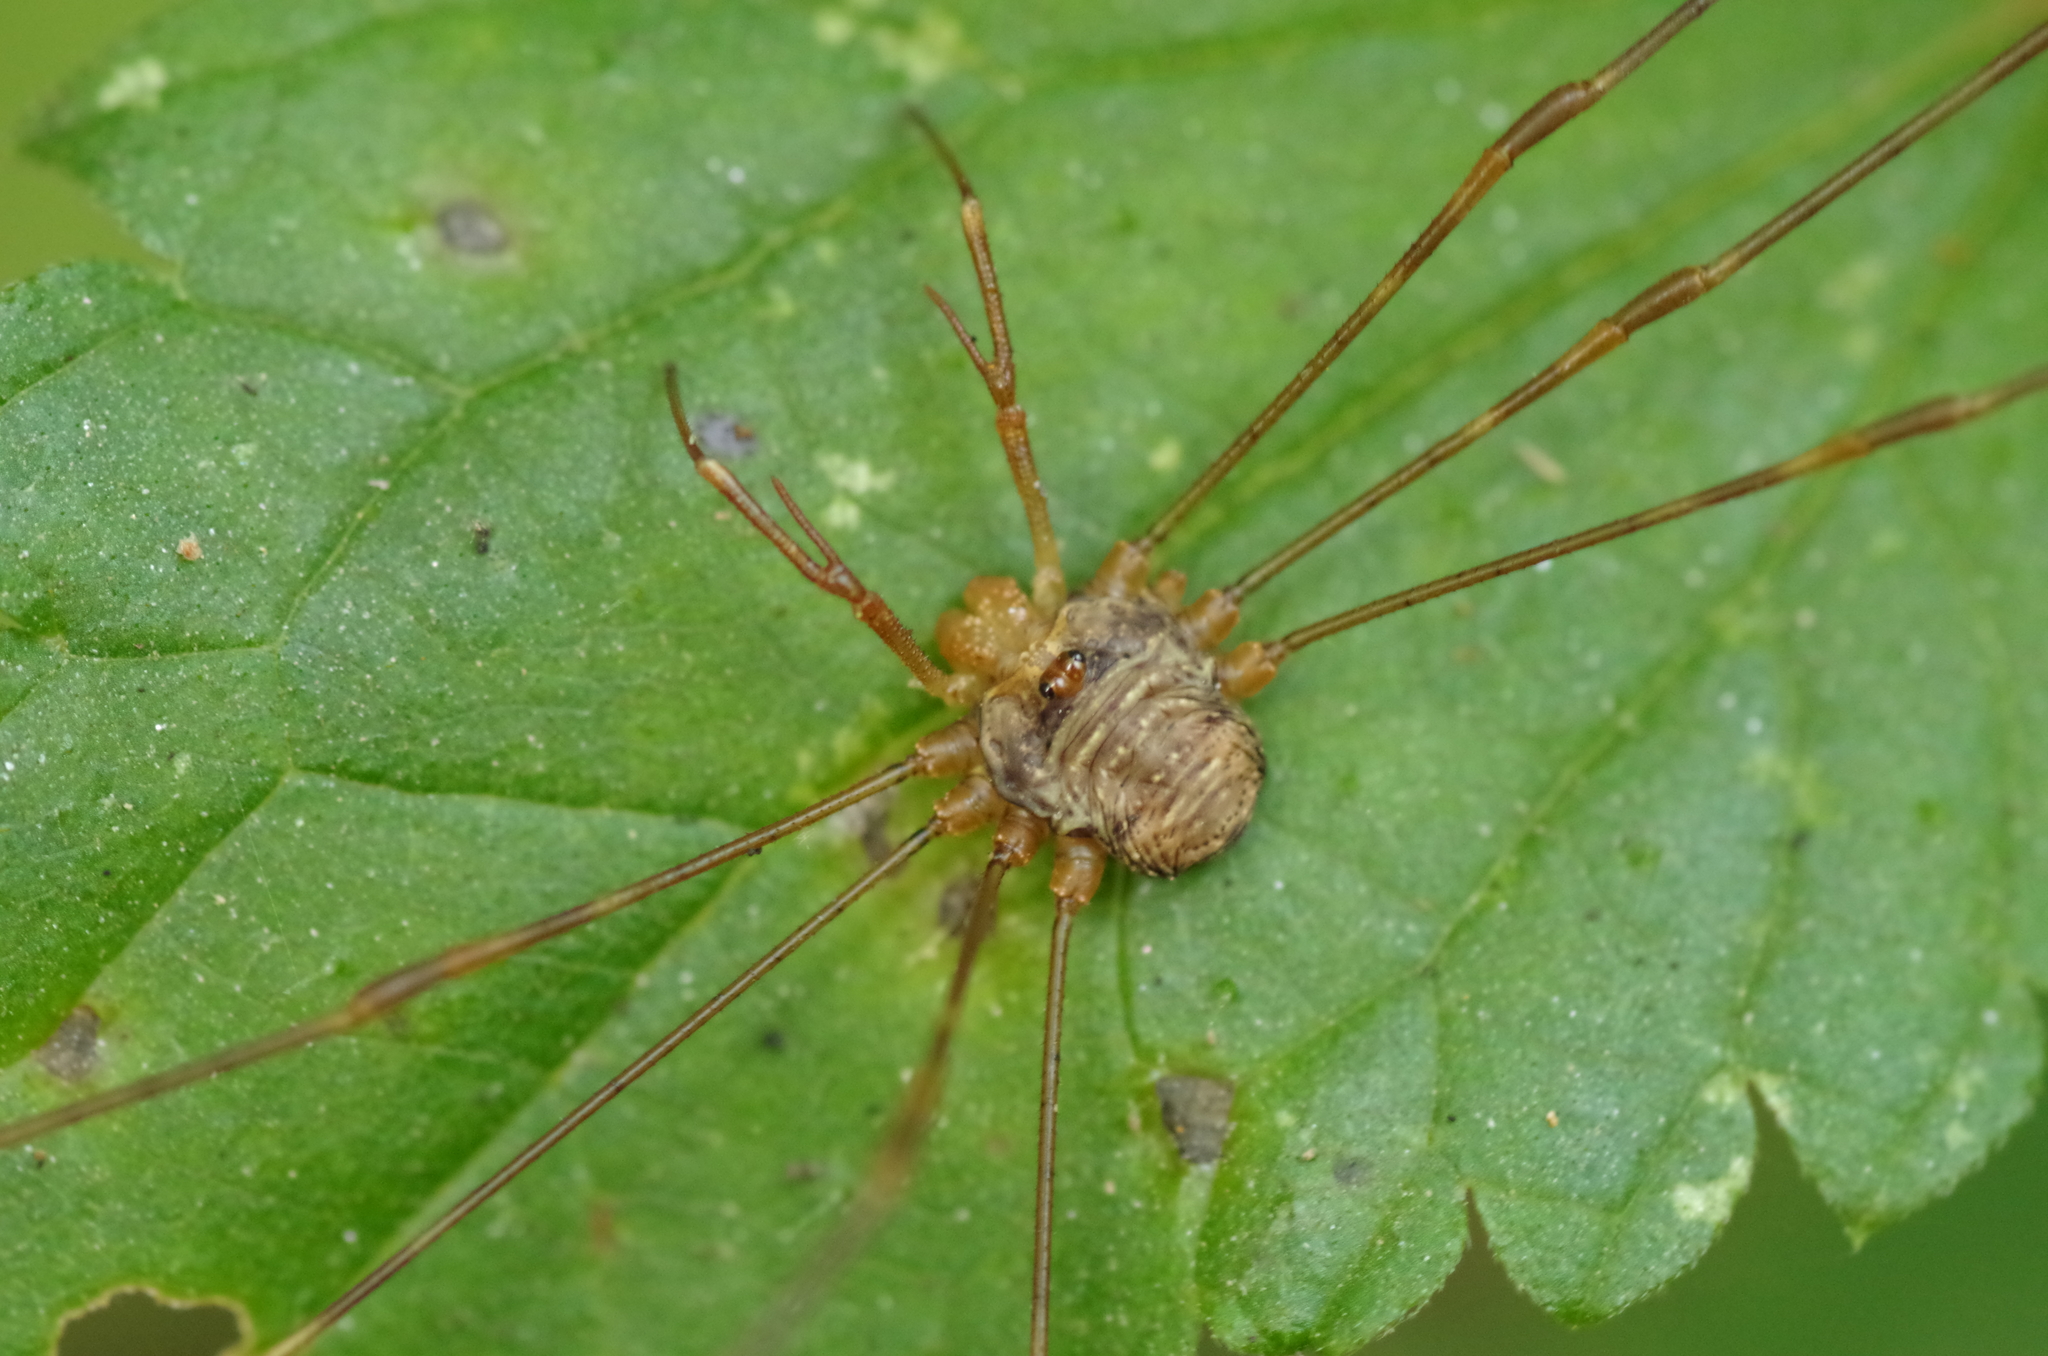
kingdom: Animalia
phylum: Arthropoda
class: Arachnida
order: Opiliones
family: Phalangiidae
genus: Dicranopalpus
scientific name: Dicranopalpus ramosus
